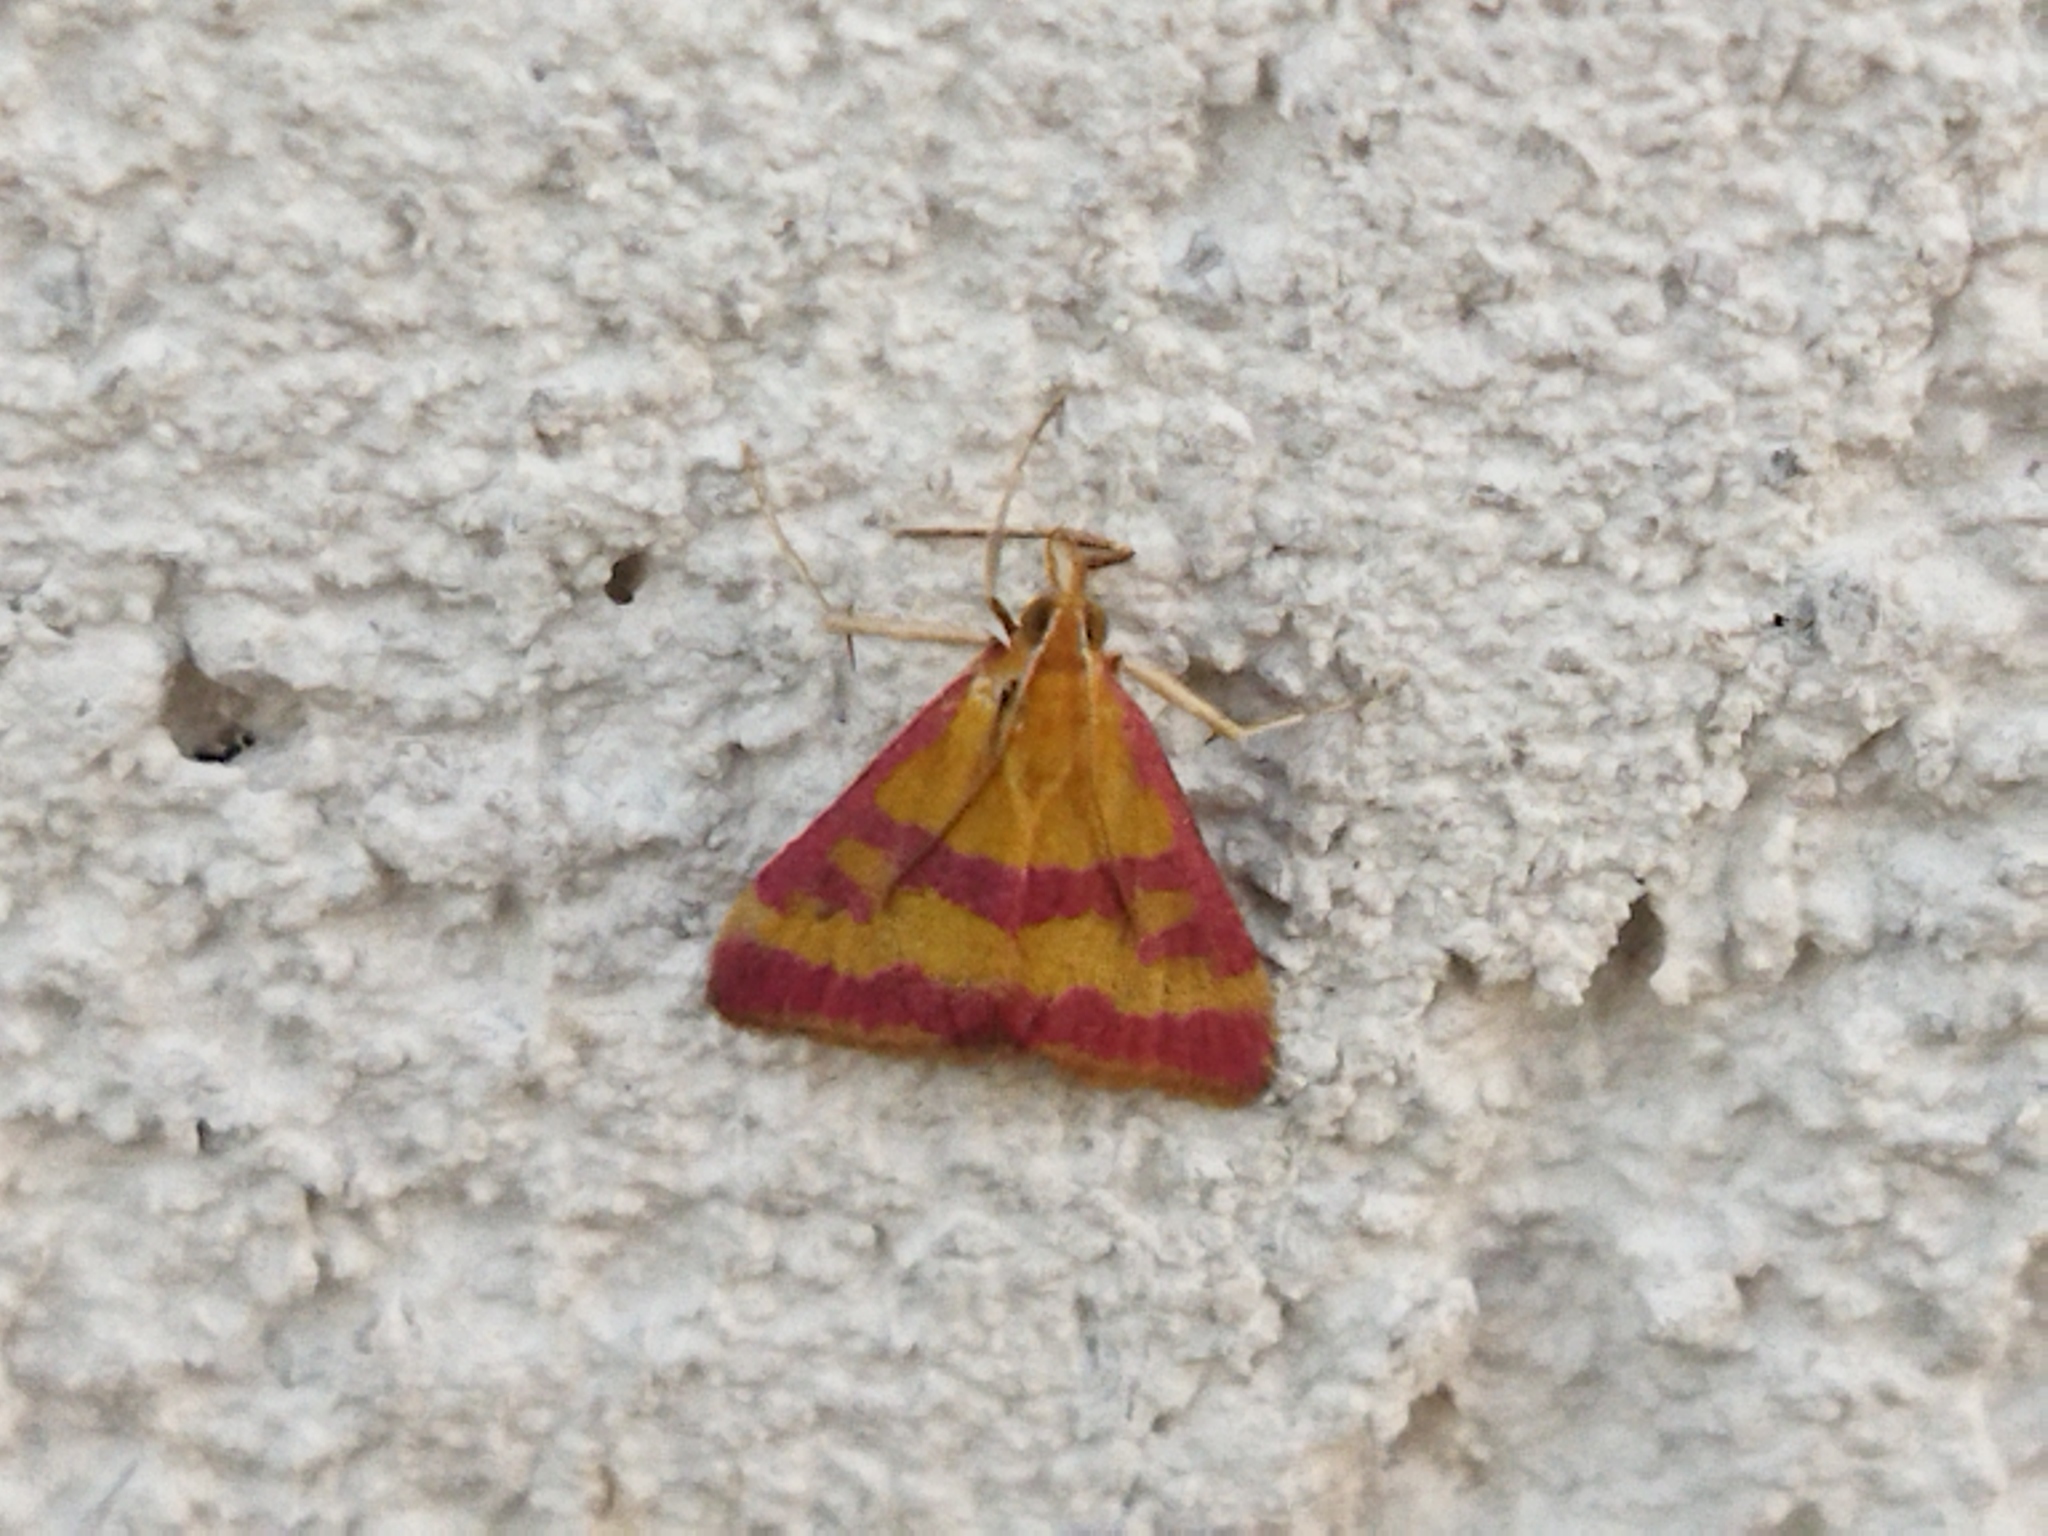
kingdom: Animalia
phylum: Arthropoda
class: Insecta
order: Lepidoptera
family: Crambidae
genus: Pyrausta
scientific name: Pyrausta sanguinalis
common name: Scarce crimson and gold
